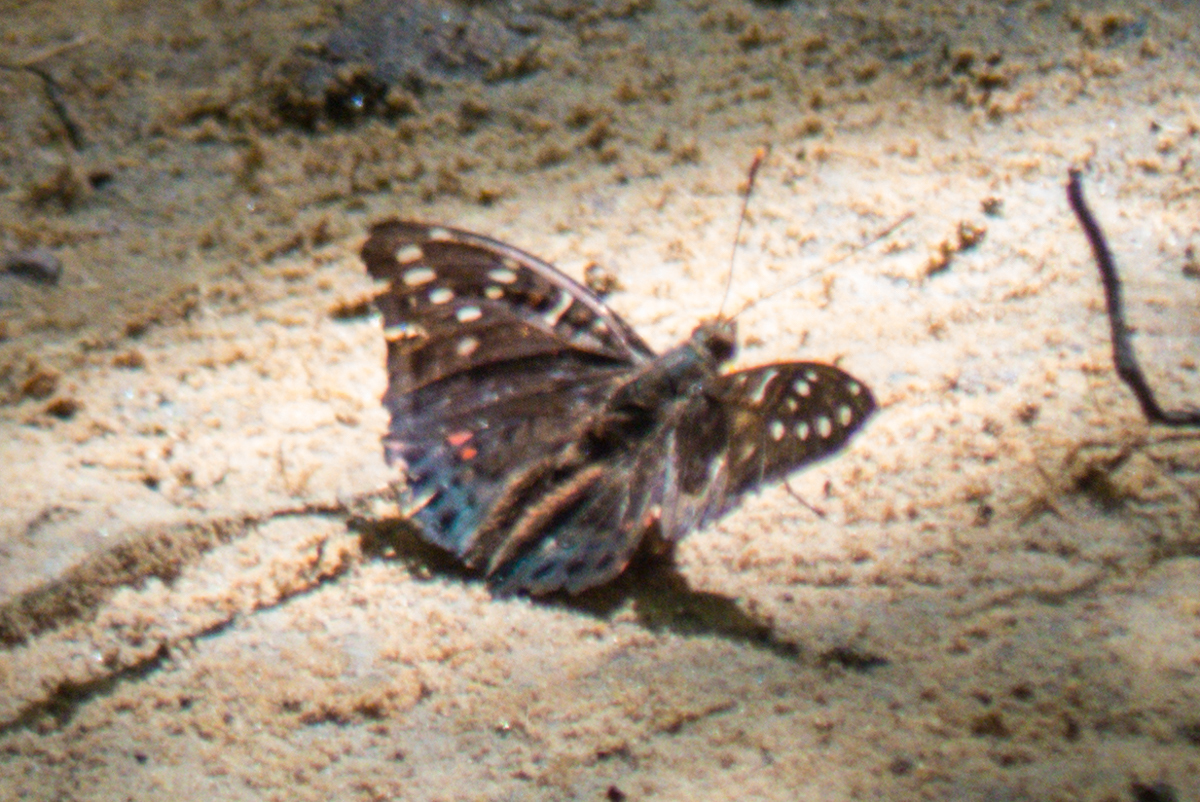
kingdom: Animalia
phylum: Arthropoda
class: Insecta
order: Lepidoptera
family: Nymphalidae
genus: Euthalia
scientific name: Euthalia lubentina
